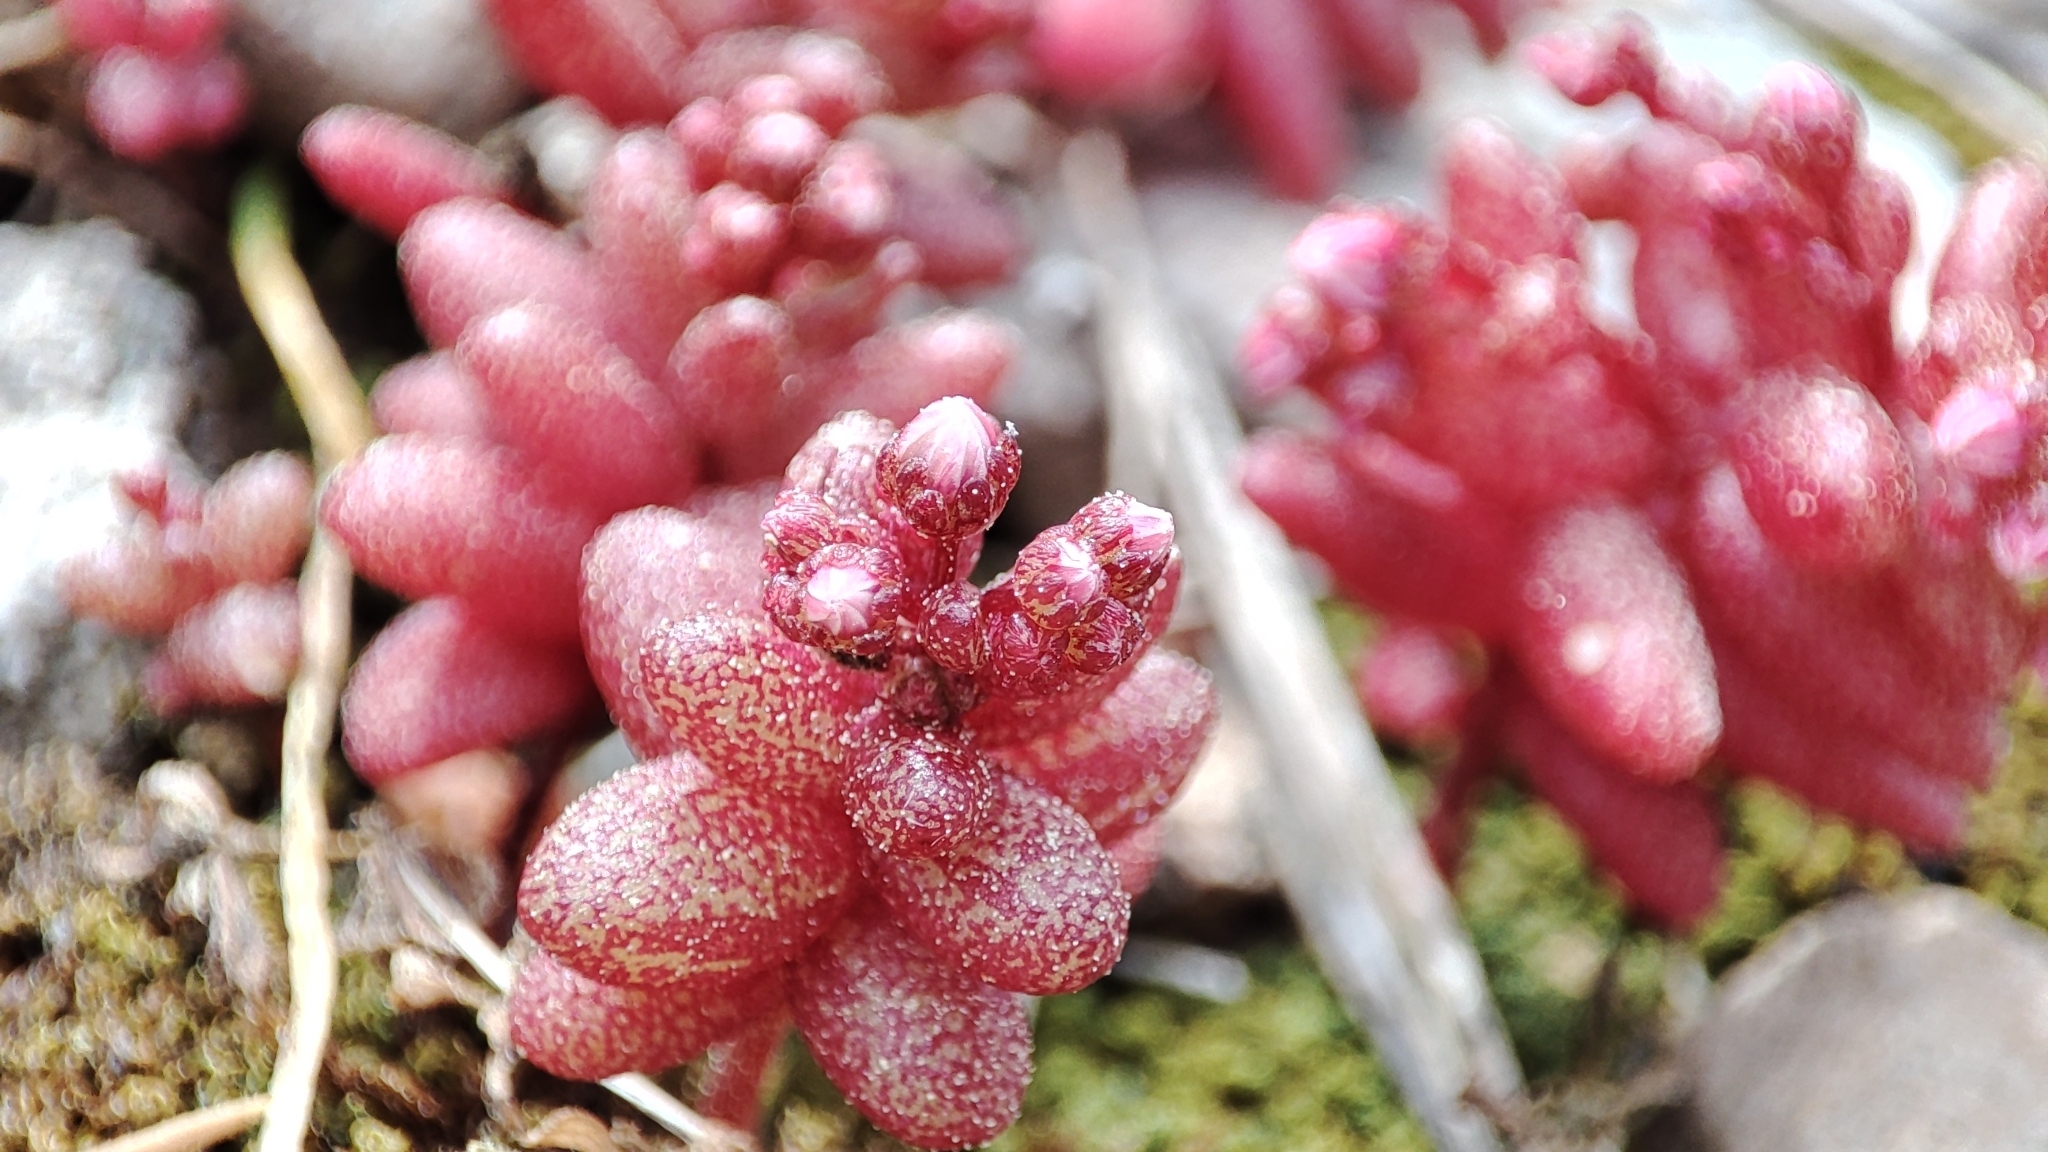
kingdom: Plantae
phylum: Tracheophyta
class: Magnoliopsida
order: Saxifragales
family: Crassulaceae
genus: Sedum
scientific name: Sedum caeruleum
